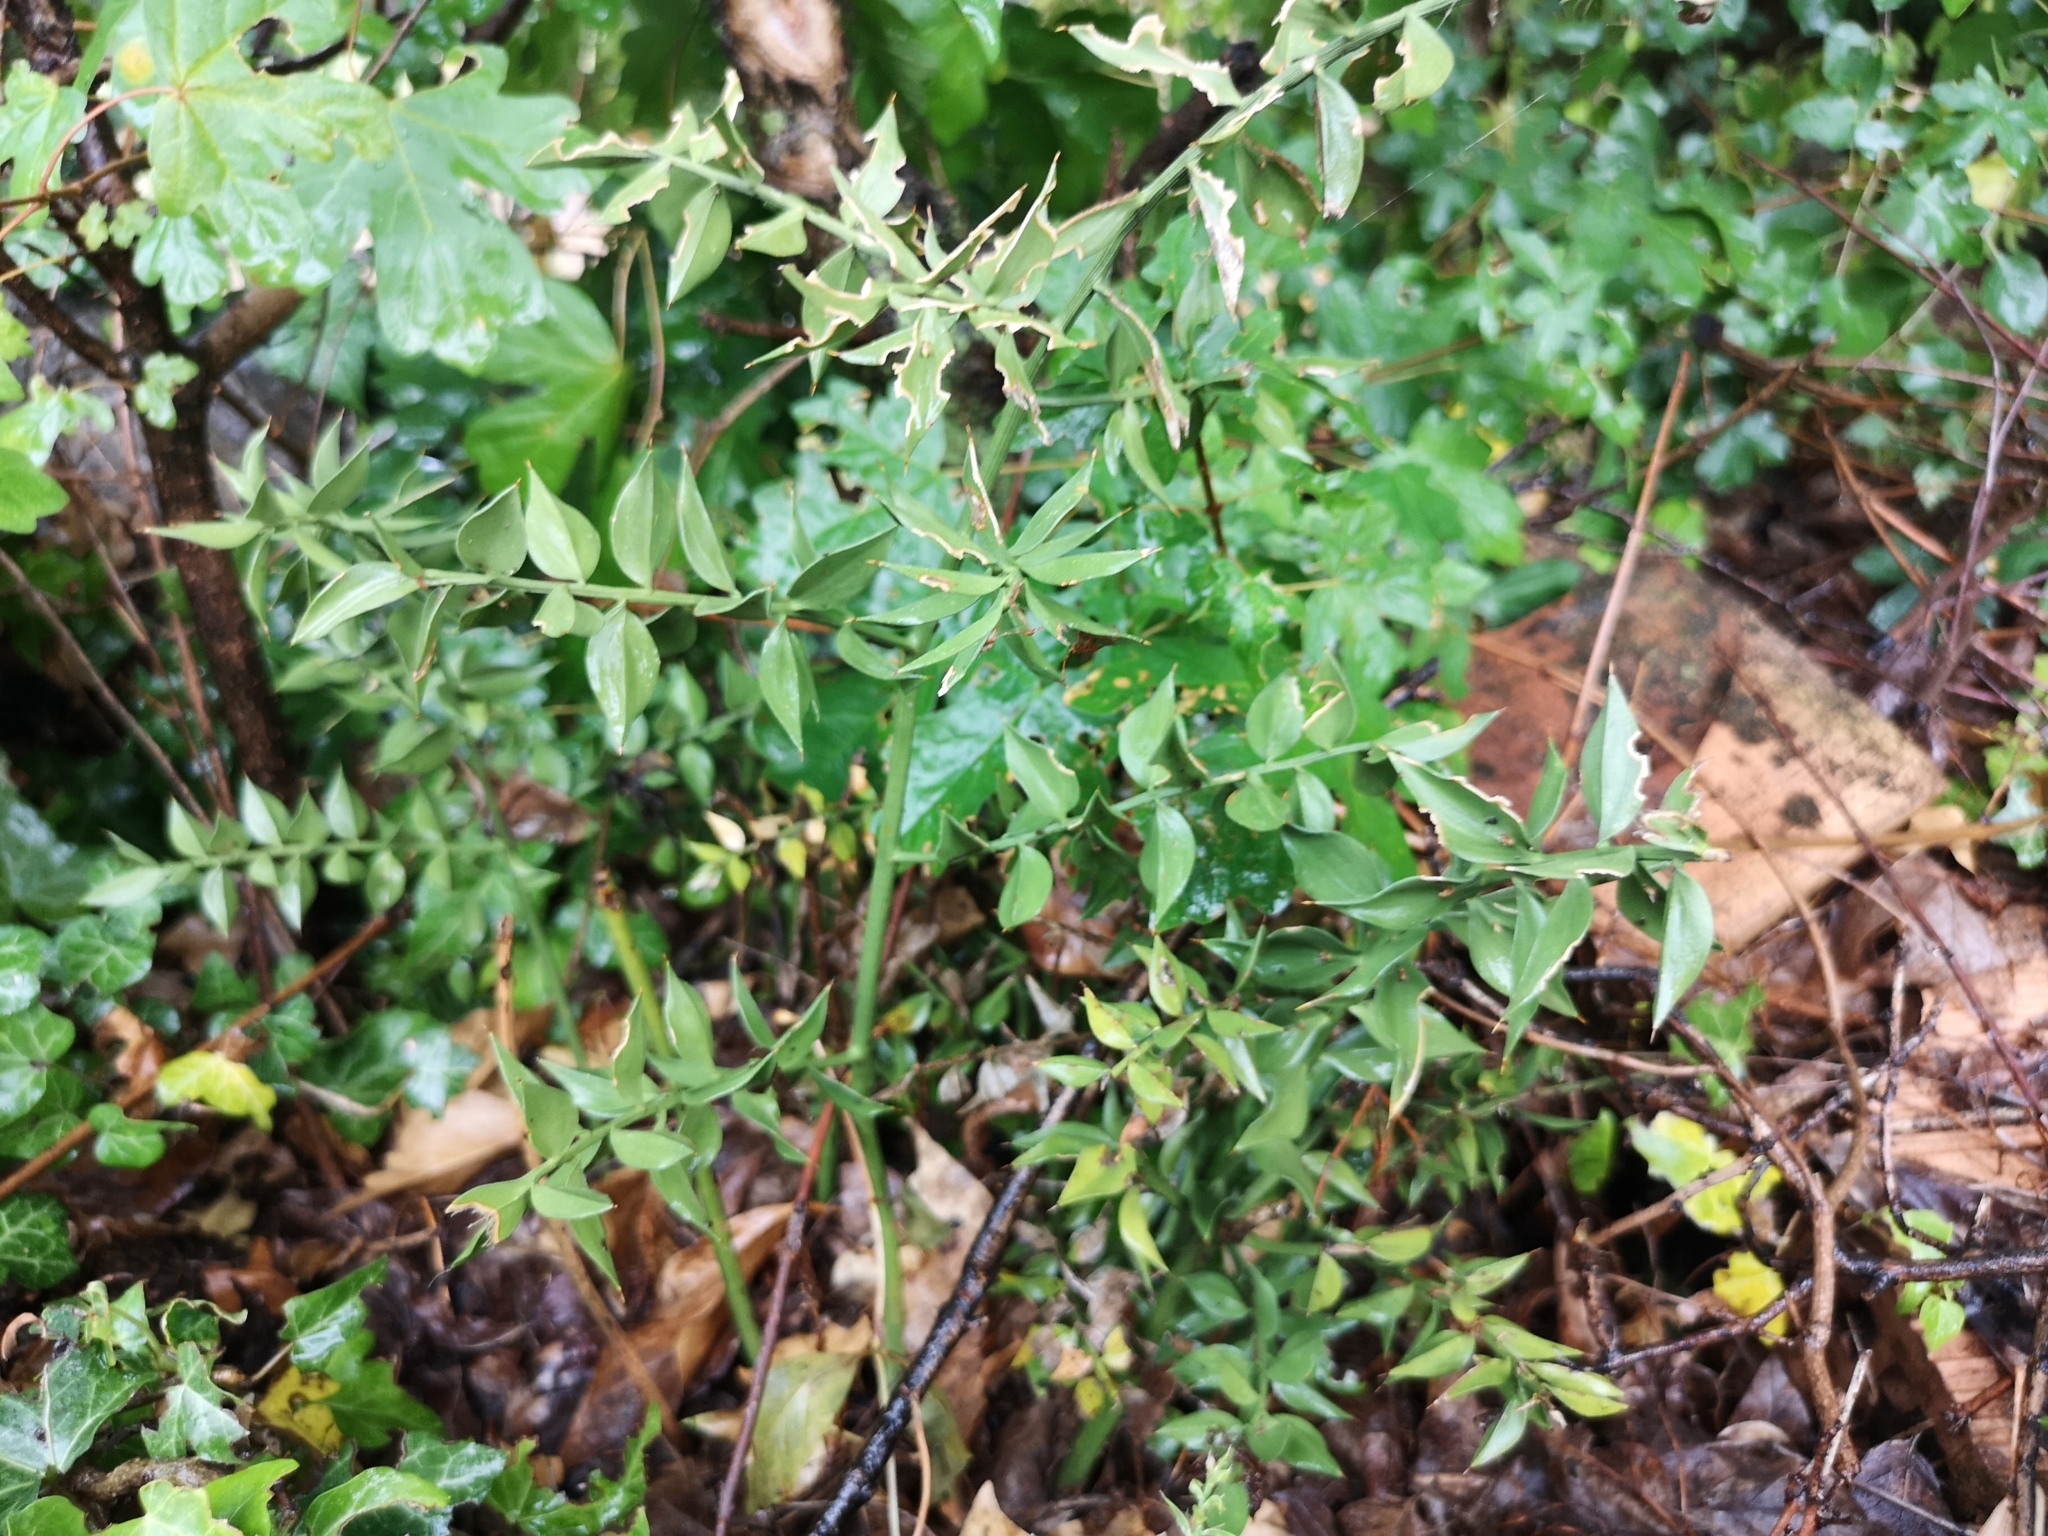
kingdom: Plantae
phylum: Tracheophyta
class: Liliopsida
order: Asparagales
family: Asparagaceae
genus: Ruscus
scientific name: Ruscus aculeatus
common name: Butcher's-broom
